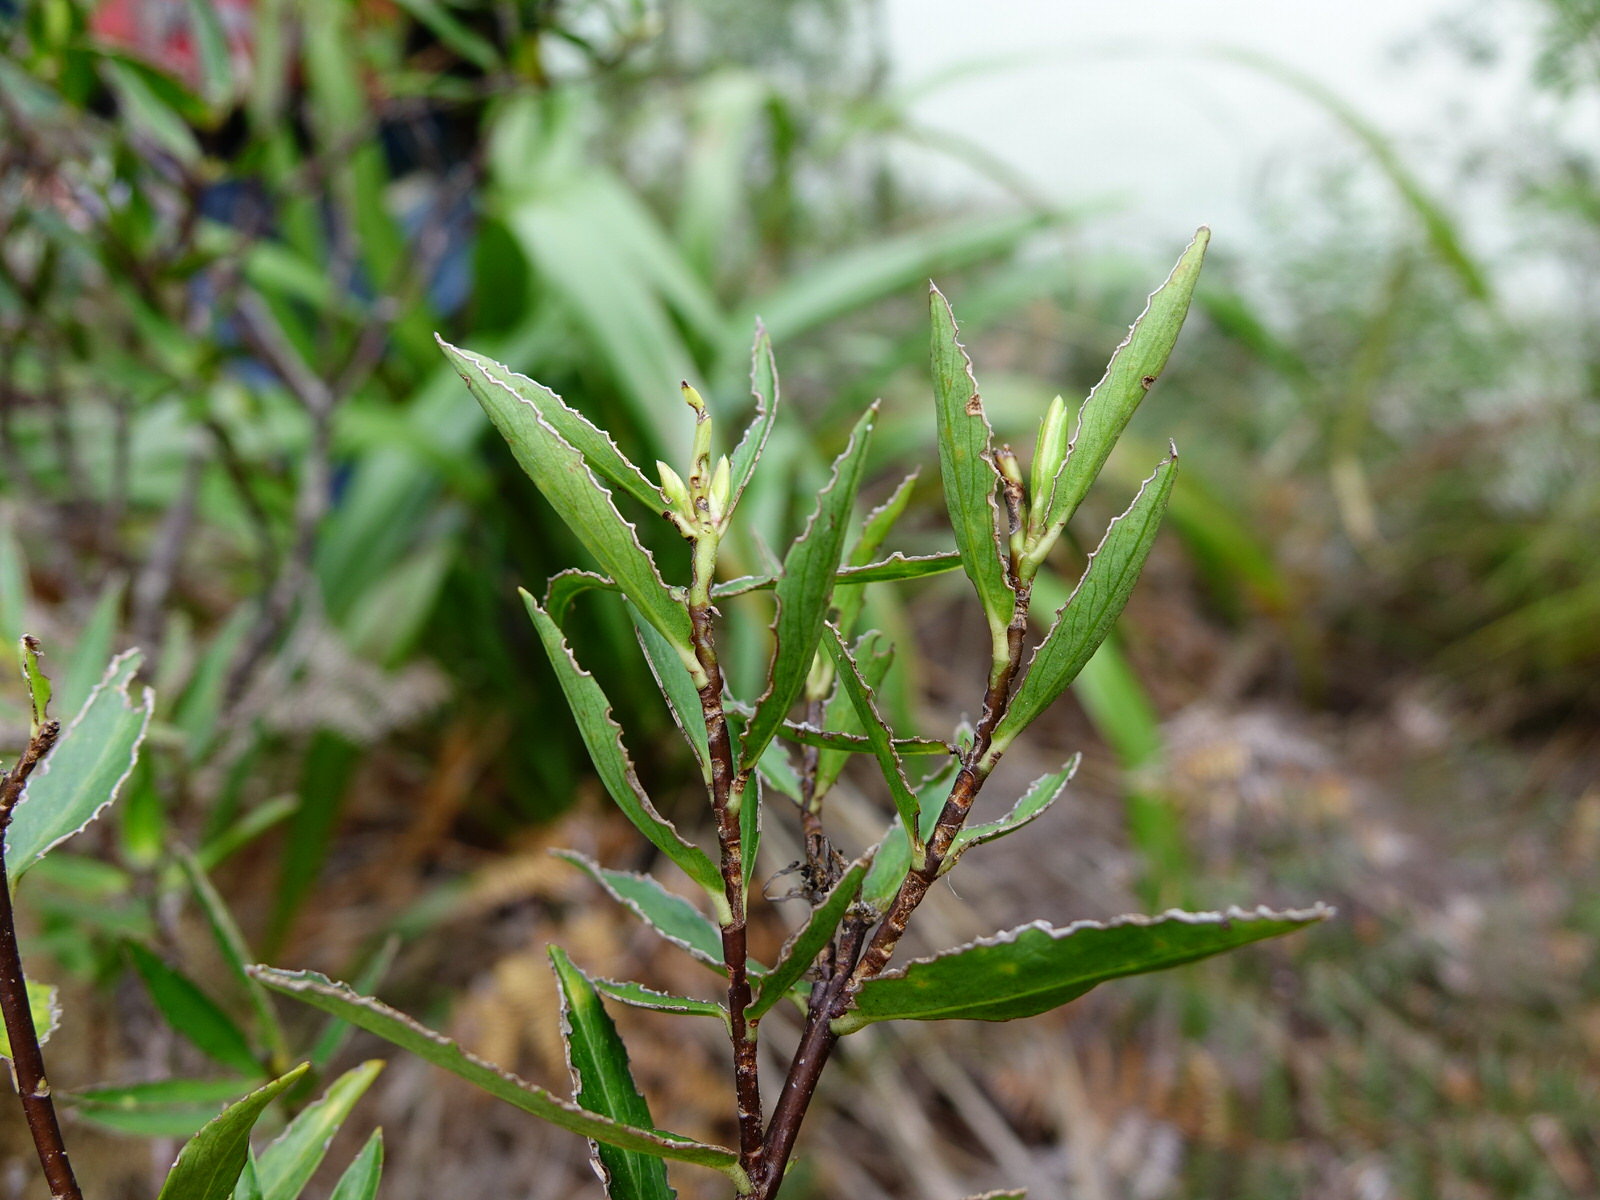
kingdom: Plantae
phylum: Tracheophyta
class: Magnoliopsida
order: Malvales
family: Thymelaeaceae
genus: Pimelea
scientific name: Pimelea longifolia
